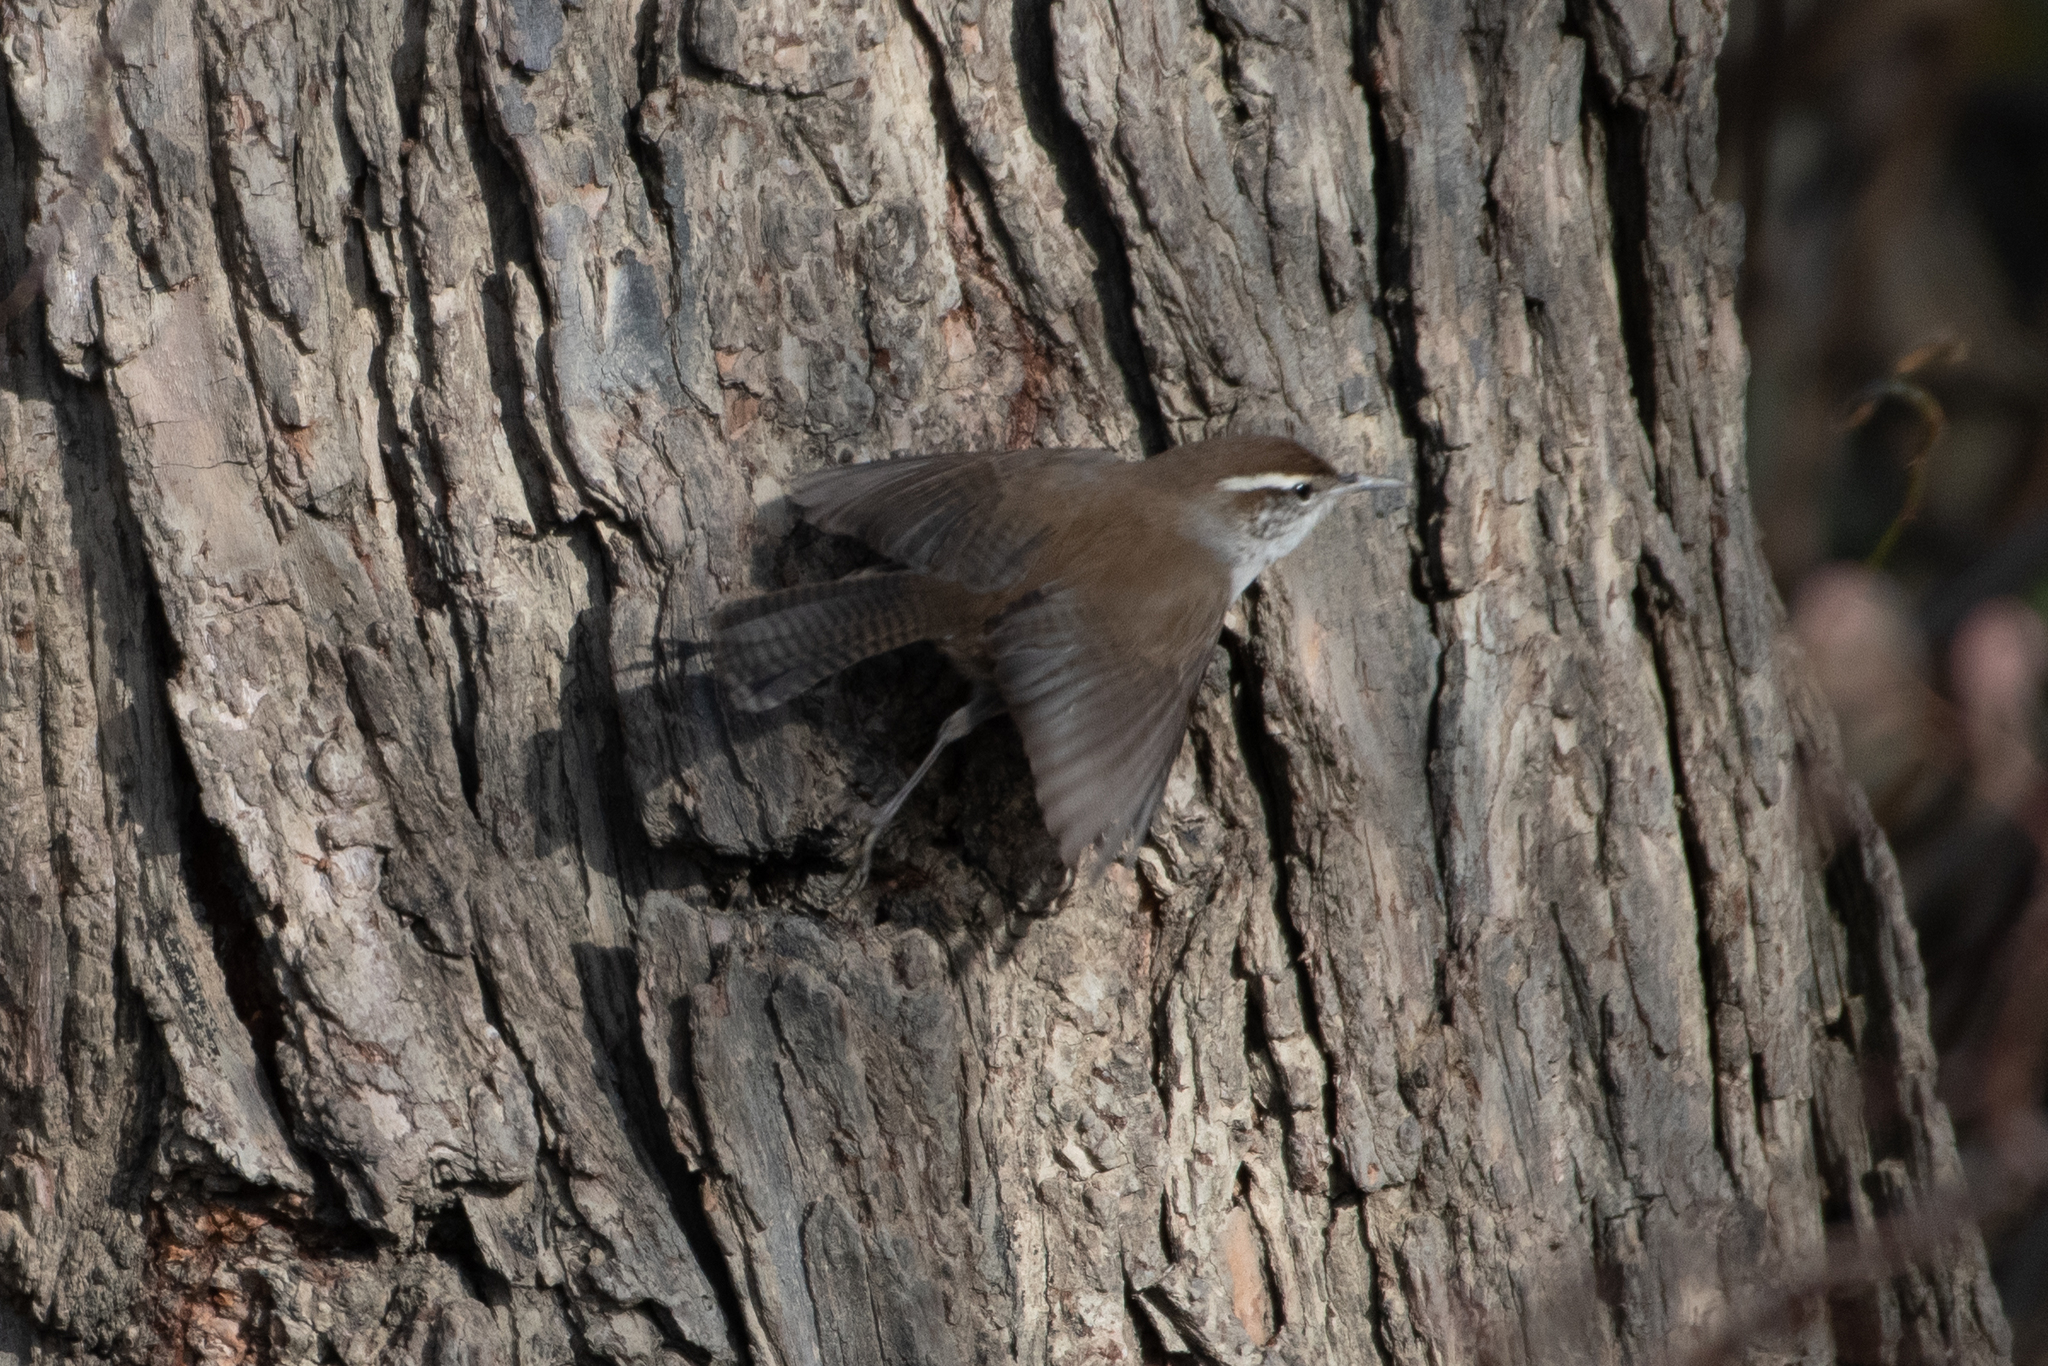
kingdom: Animalia
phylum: Chordata
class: Aves
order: Passeriformes
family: Troglodytidae
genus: Thryomanes
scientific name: Thryomanes bewickii
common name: Bewick's wren
